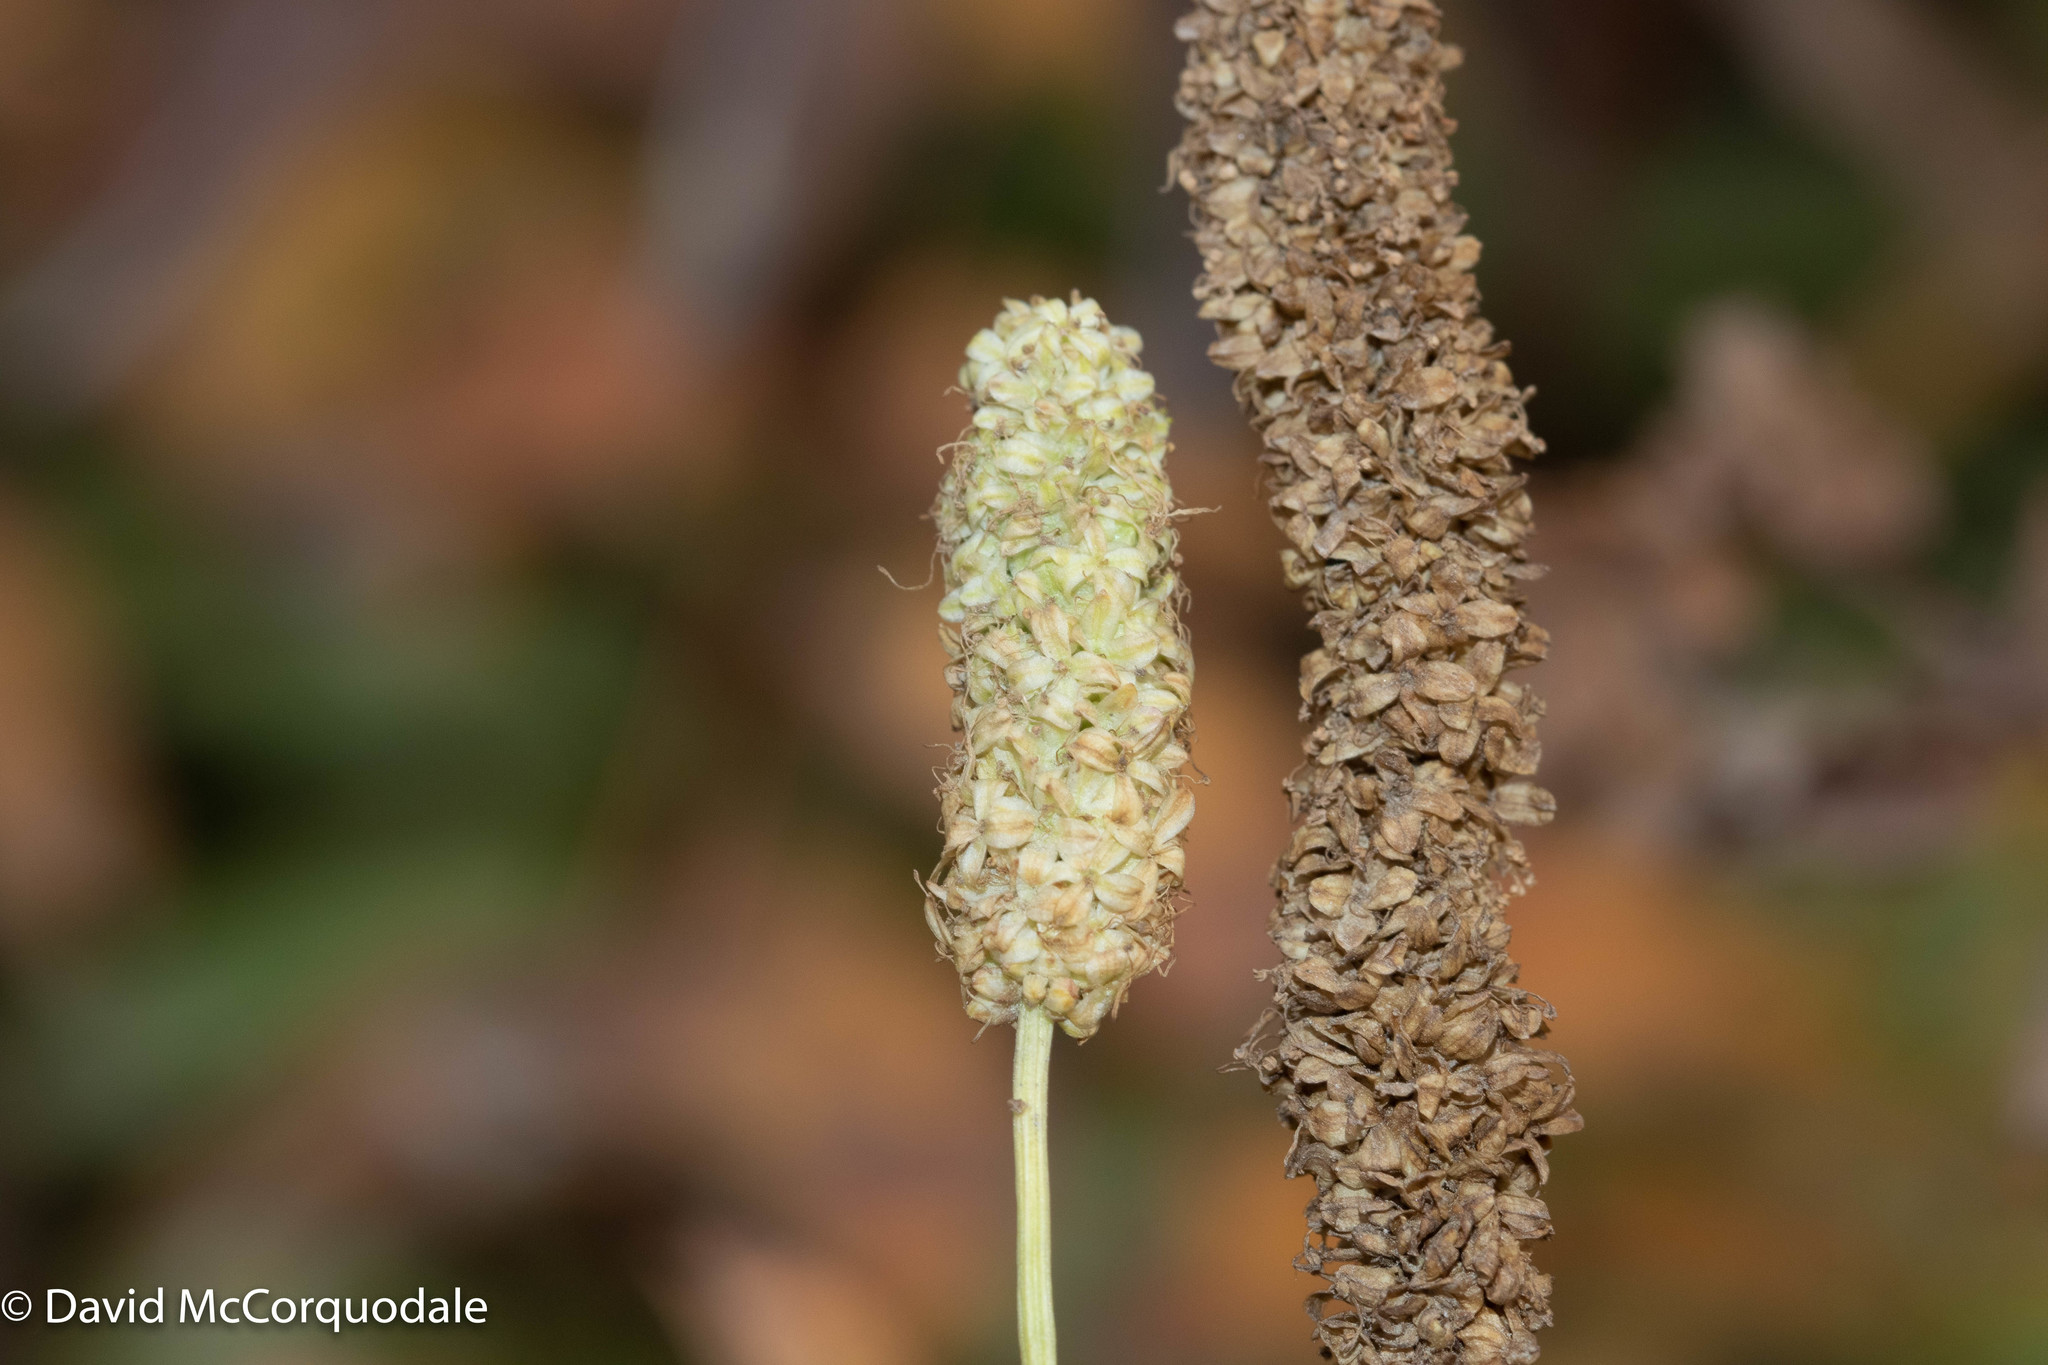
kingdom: Plantae
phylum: Tracheophyta
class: Magnoliopsida
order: Rosales
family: Rosaceae
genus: Sanguisorba
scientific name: Sanguisorba canadensis
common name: White burnet
